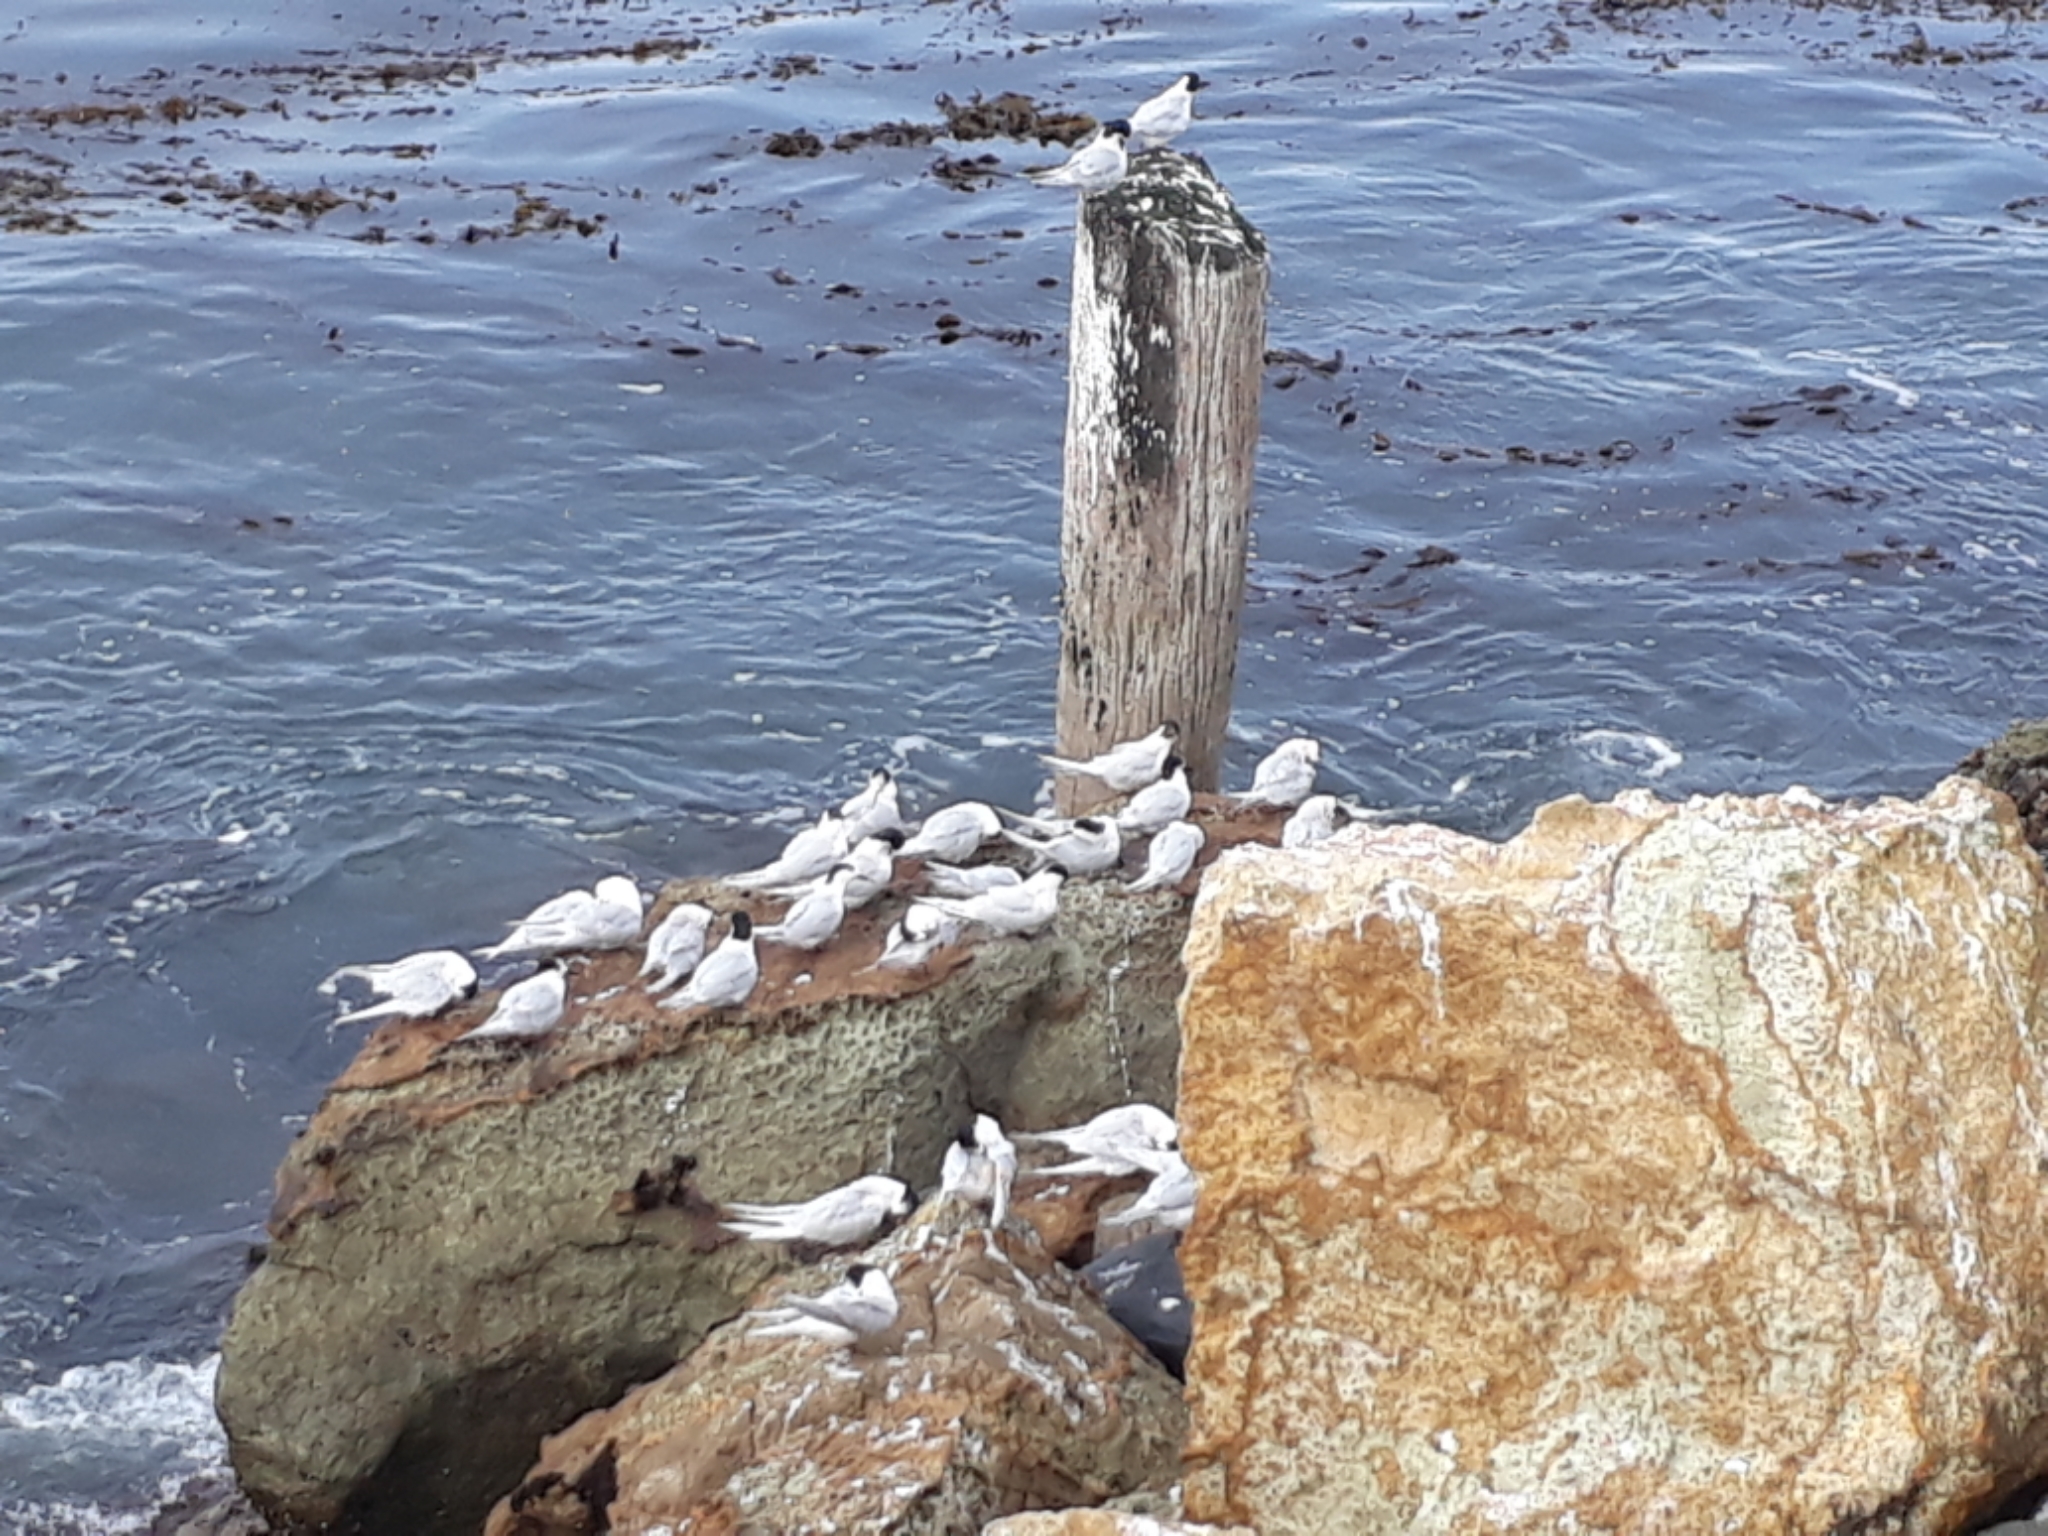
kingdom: Animalia
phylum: Chordata
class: Aves
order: Charadriiformes
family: Laridae
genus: Sterna
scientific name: Sterna striata
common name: White-fronted tern
